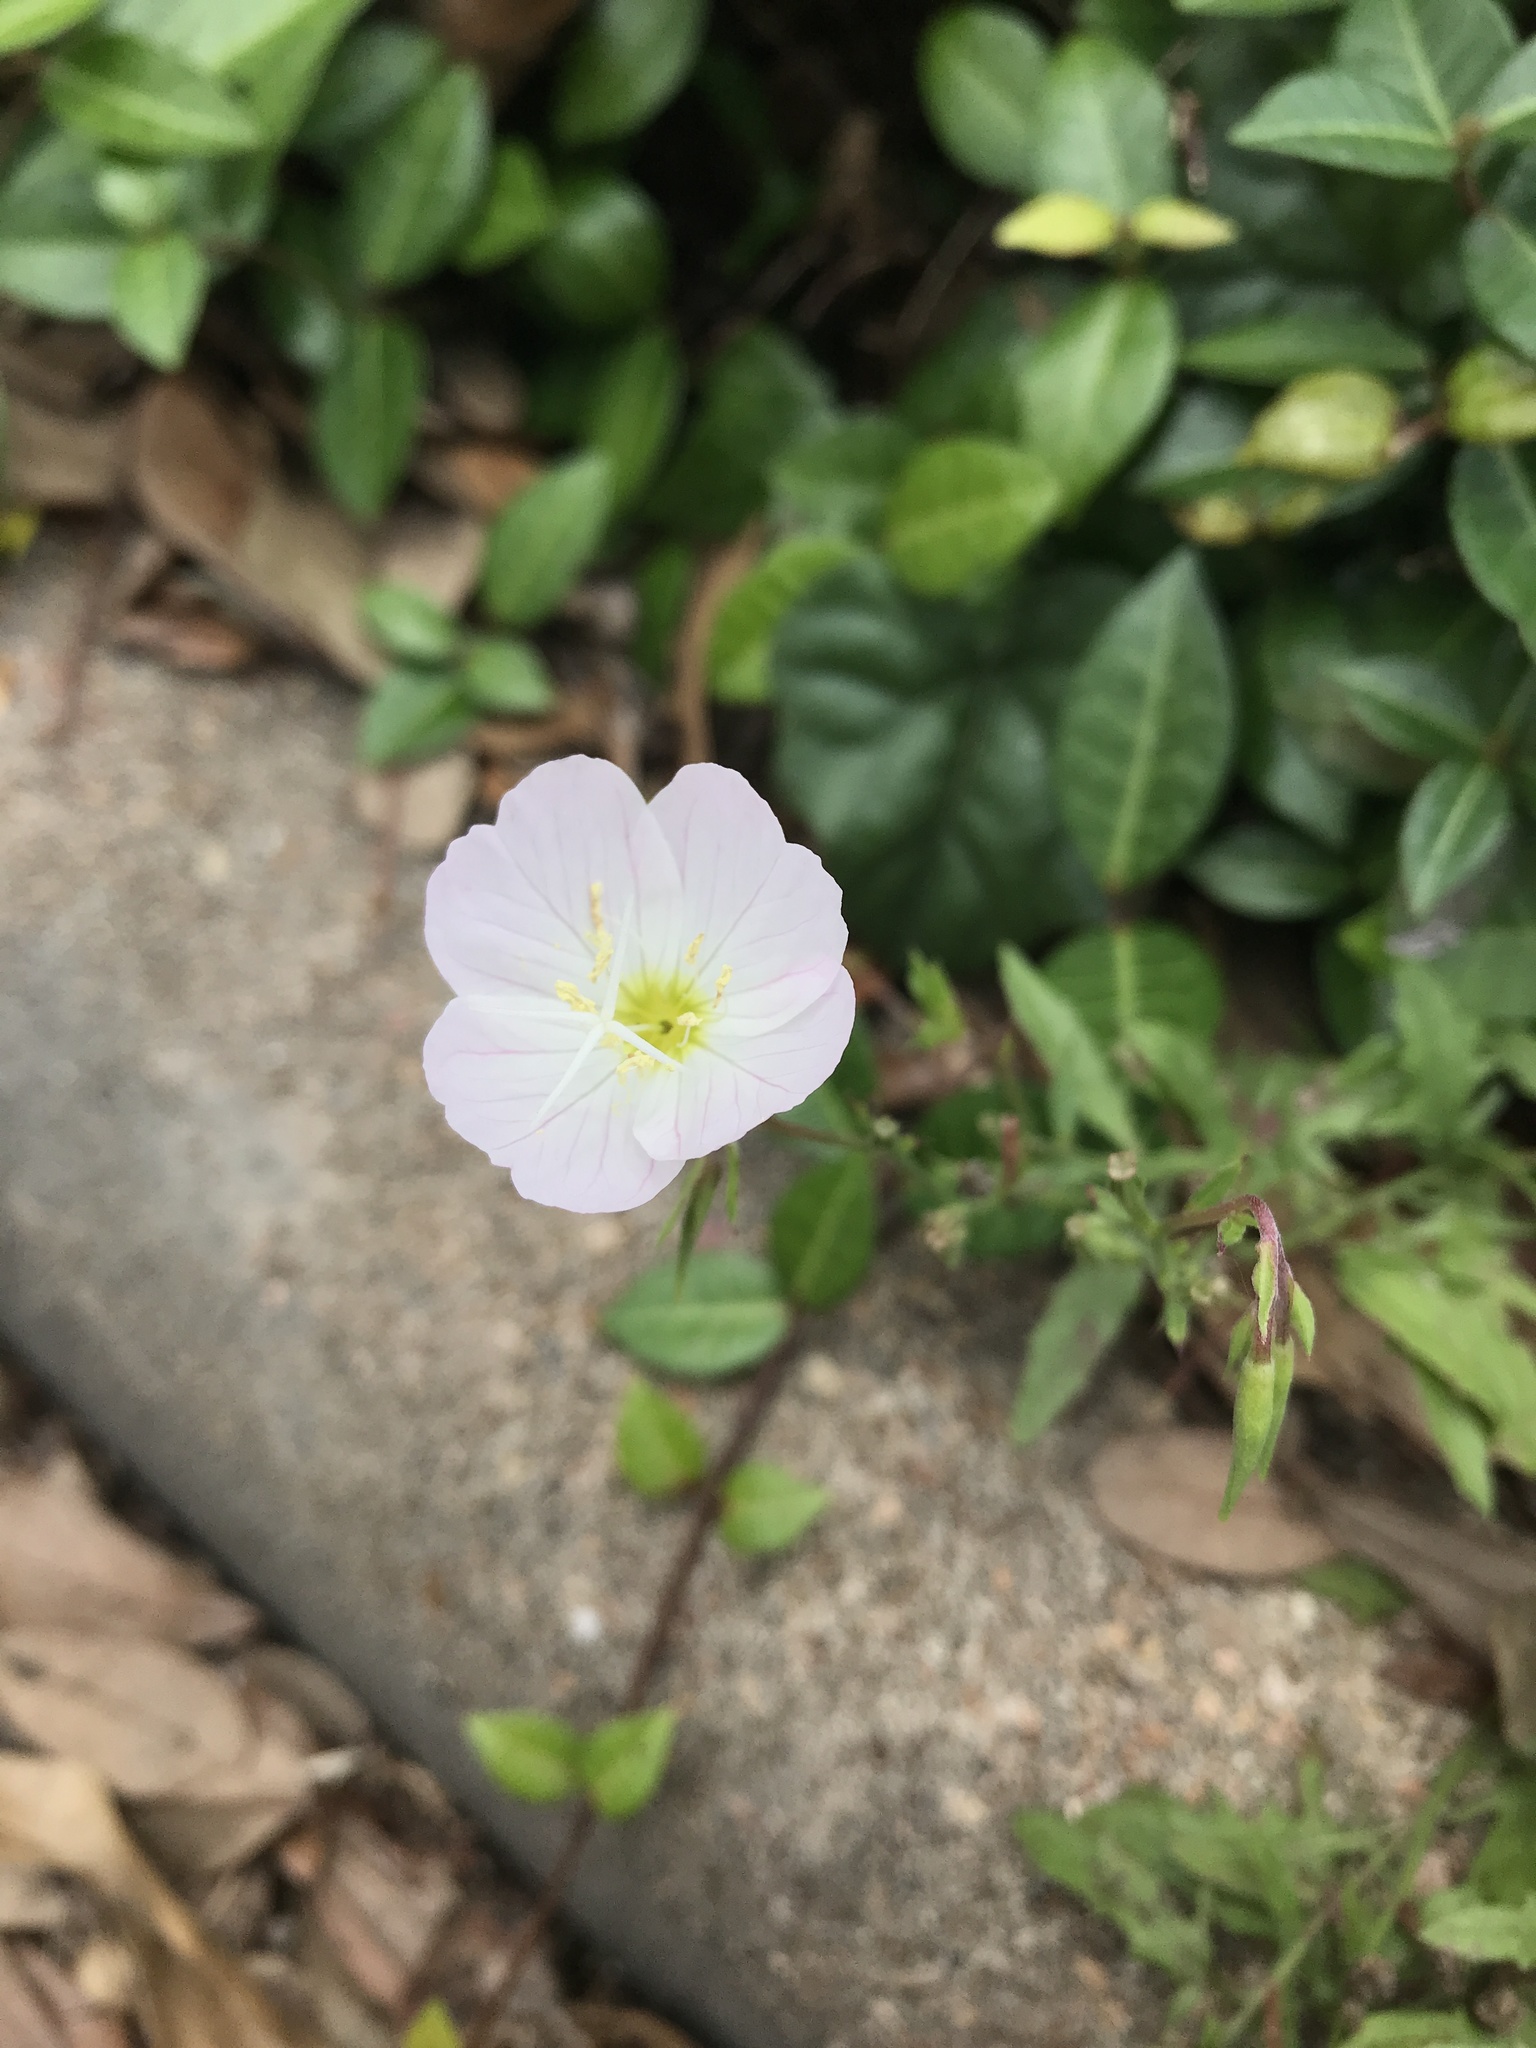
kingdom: Plantae
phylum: Tracheophyta
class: Magnoliopsida
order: Myrtales
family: Onagraceae
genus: Oenothera
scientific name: Oenothera speciosa
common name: White evening-primrose
